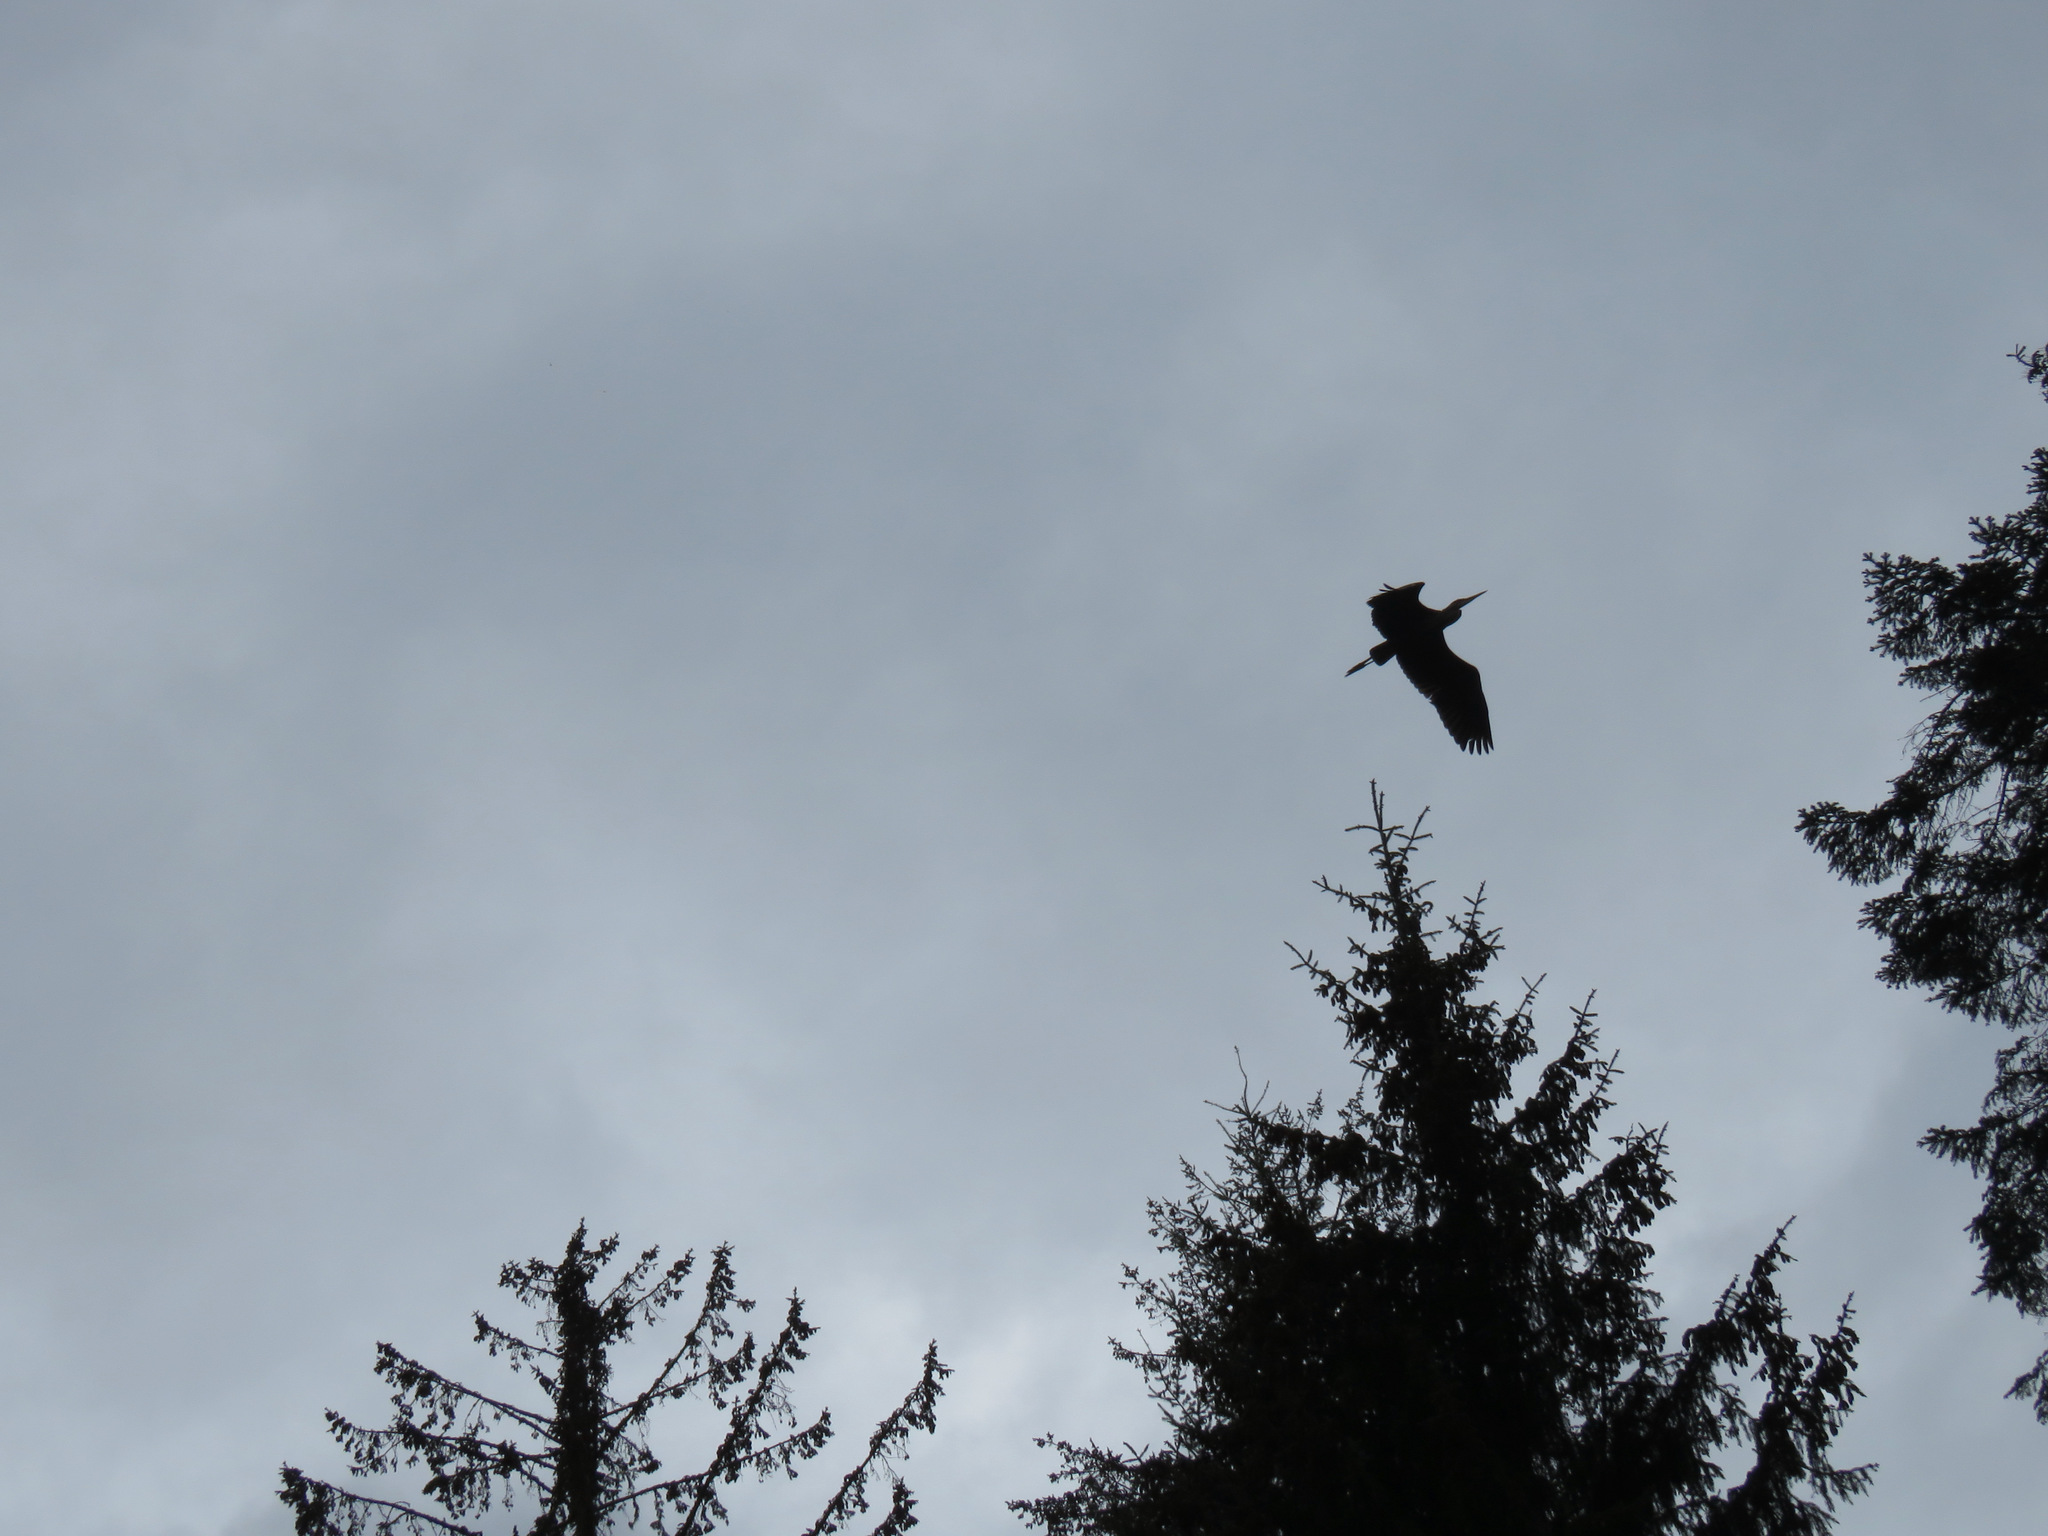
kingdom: Animalia
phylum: Chordata
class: Aves
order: Pelecaniformes
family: Ardeidae
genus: Ardea
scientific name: Ardea herodias
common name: Great blue heron
